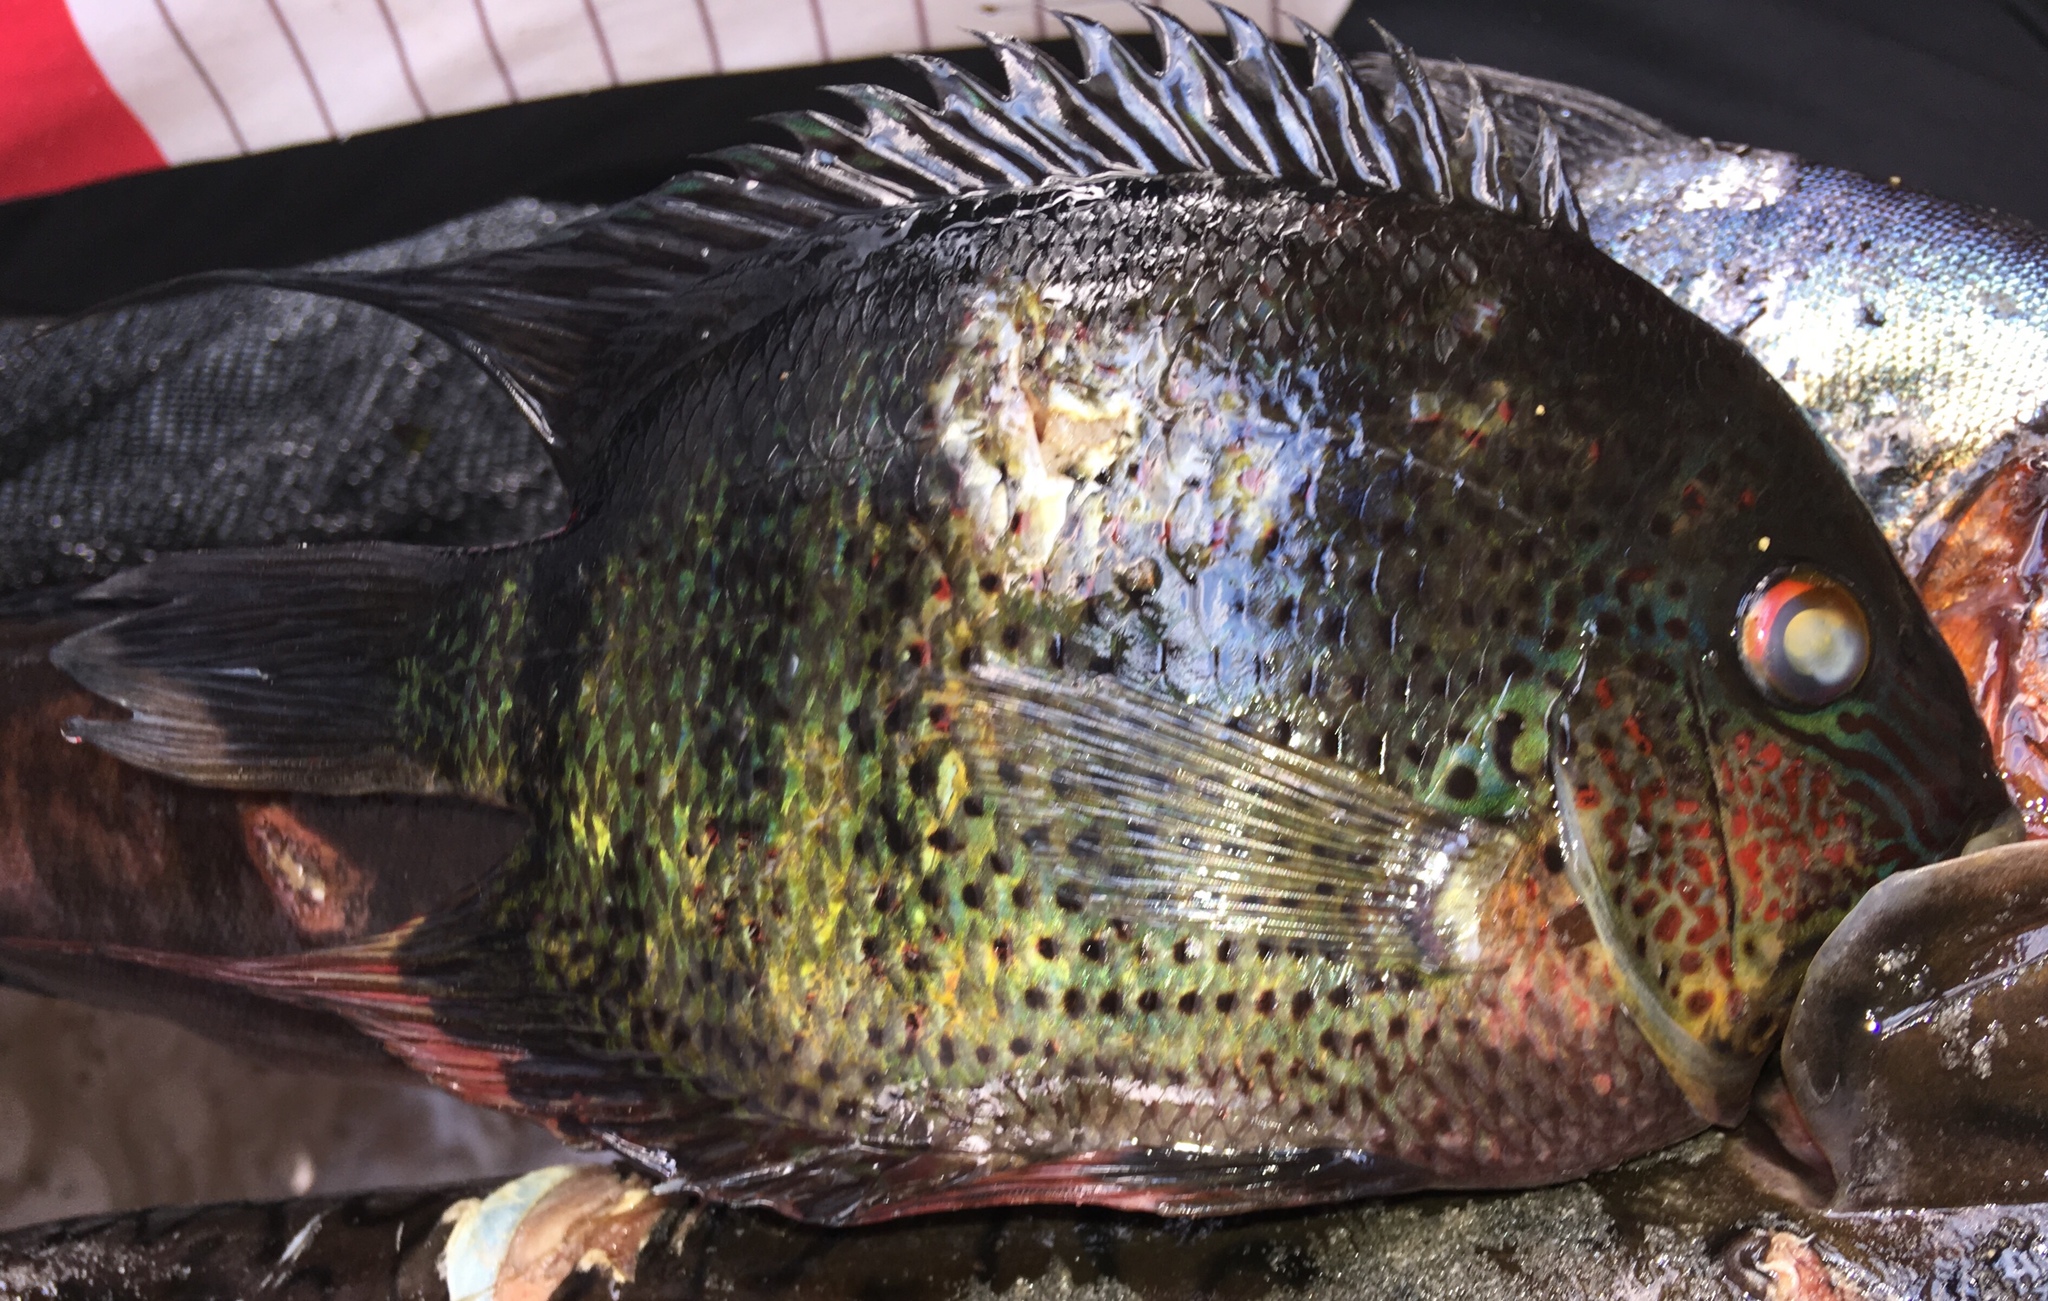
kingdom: Animalia
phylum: Chordata
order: Perciformes
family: Cichlidae
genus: Heros
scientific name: Heros severus
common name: Banded cichlid
